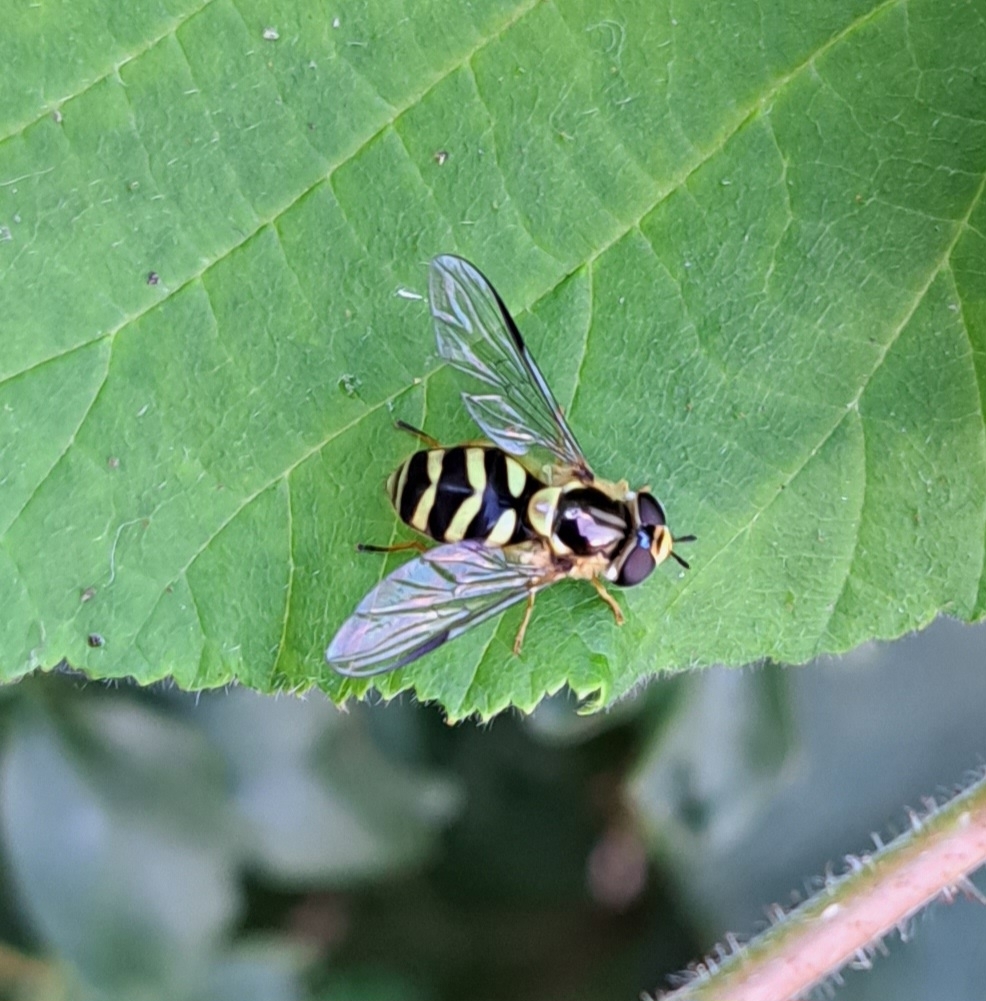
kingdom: Animalia
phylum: Arthropoda
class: Insecta
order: Diptera
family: Syrphidae
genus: Dasysyrphus
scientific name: Dasysyrphus albostriatus
